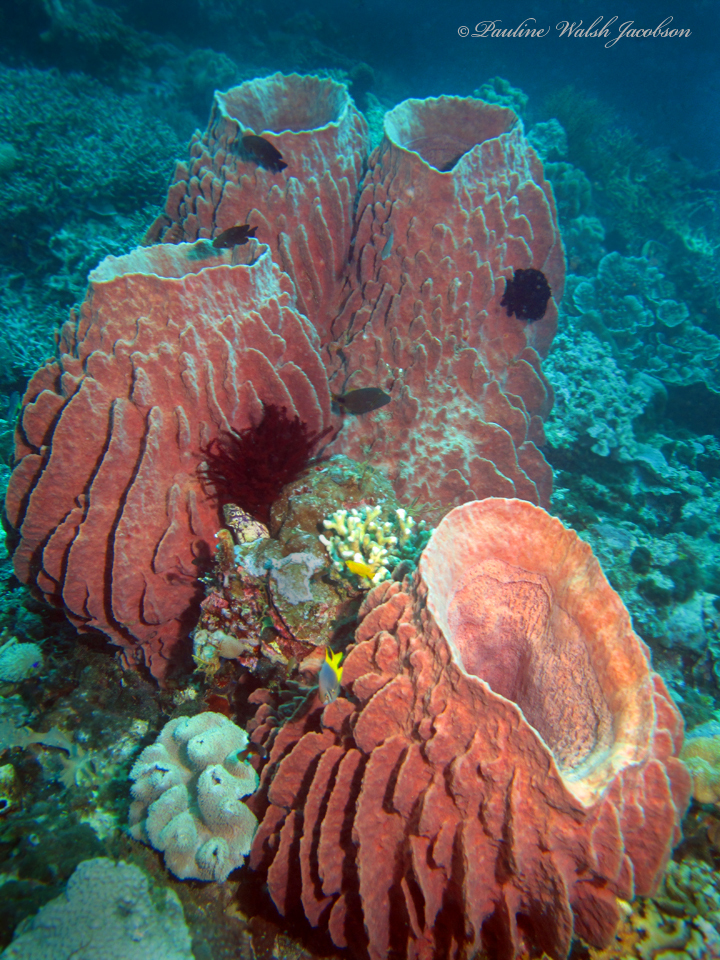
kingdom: Animalia
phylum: Porifera
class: Demospongiae
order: Haplosclerida
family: Petrosiidae
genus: Xestospongia
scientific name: Xestospongia testudinaria
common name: Barrel sponge
